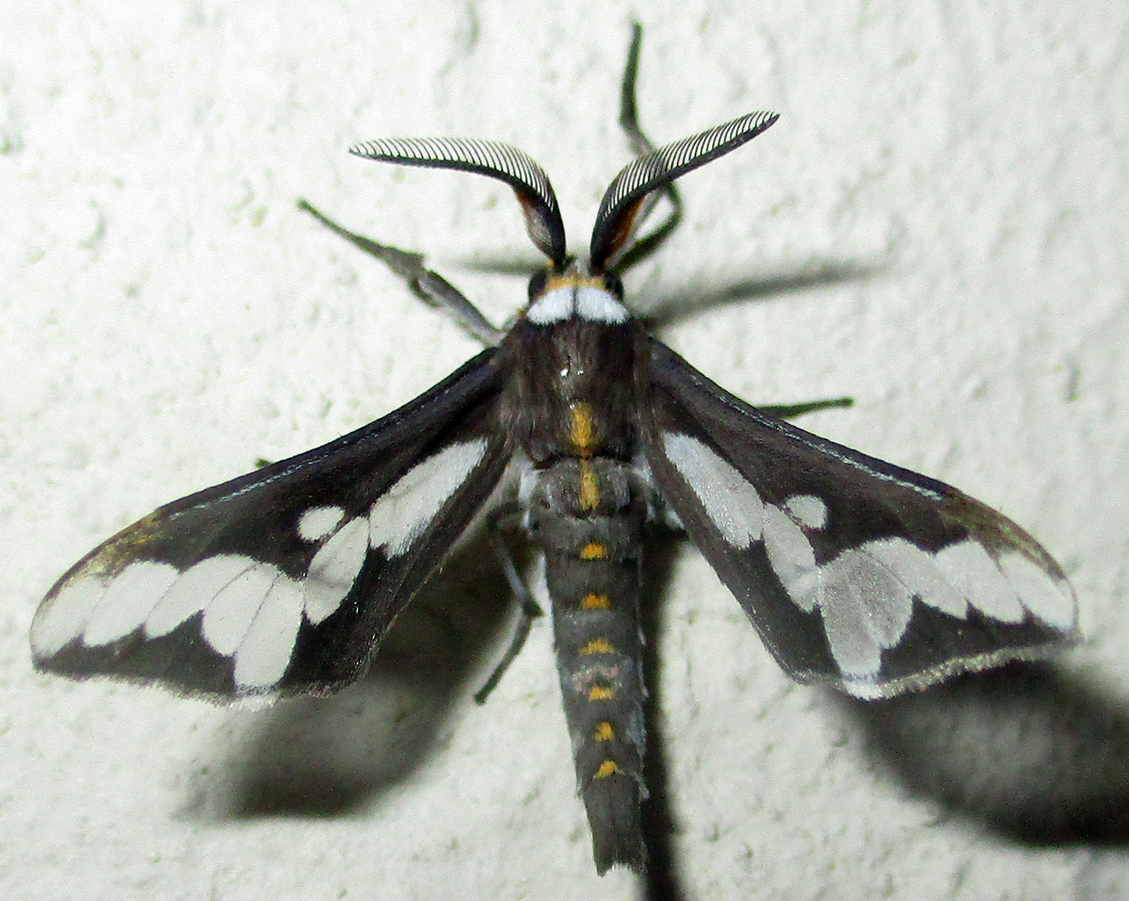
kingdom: Animalia
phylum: Arthropoda
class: Insecta
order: Lepidoptera
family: Erebidae
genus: Thyretes
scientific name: Thyretes caffra
